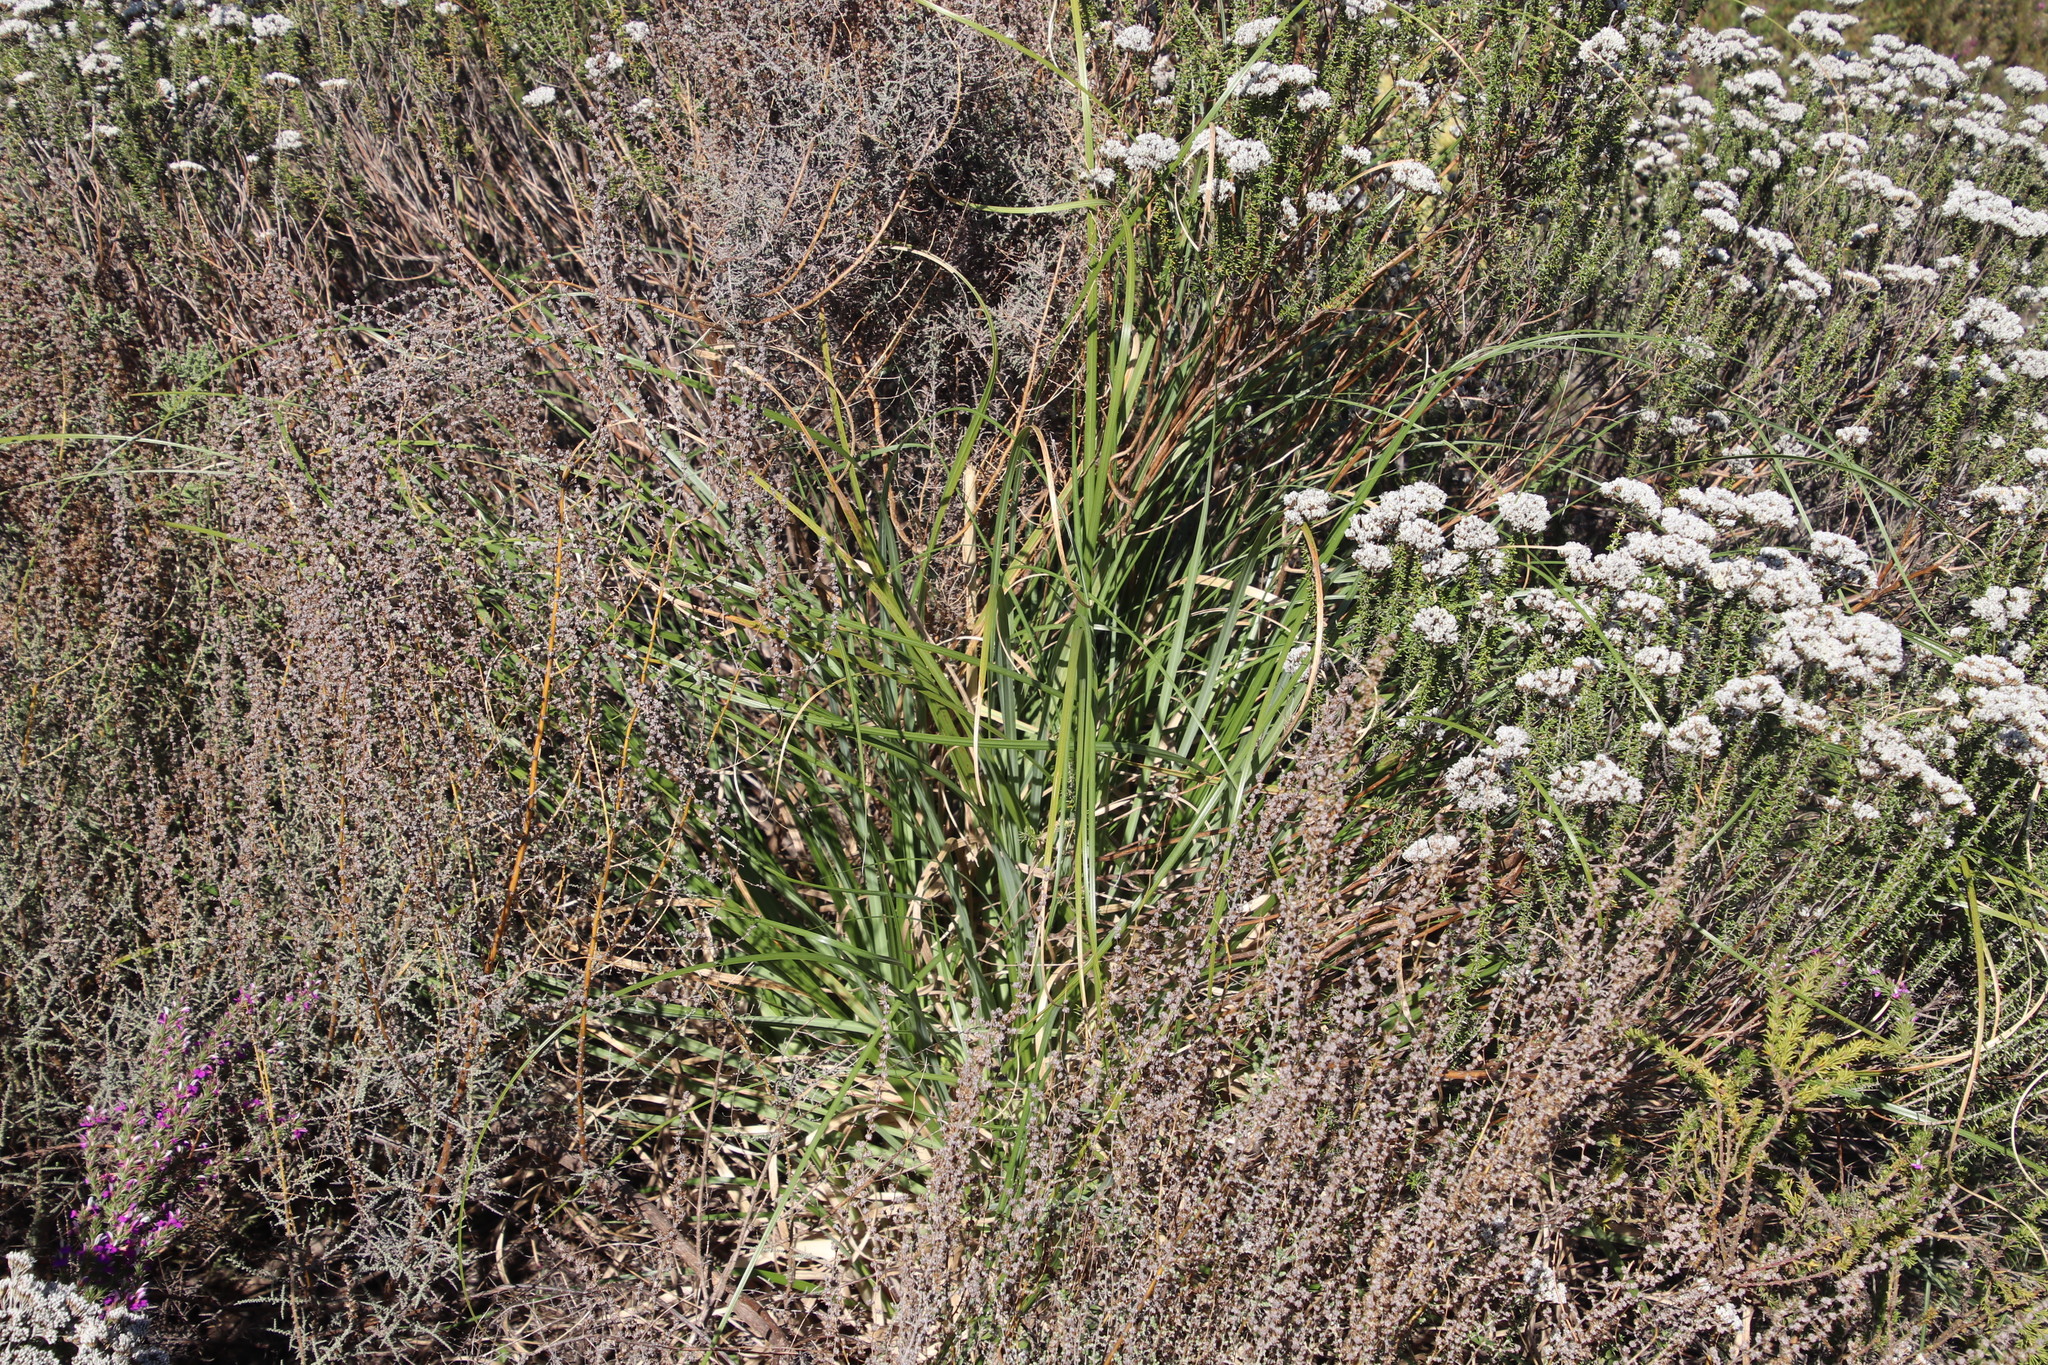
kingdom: Plantae
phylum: Tracheophyta
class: Liliopsida
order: Poales
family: Poaceae
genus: Cortaderia
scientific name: Cortaderia selloana
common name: Uruguayan pampas grass
